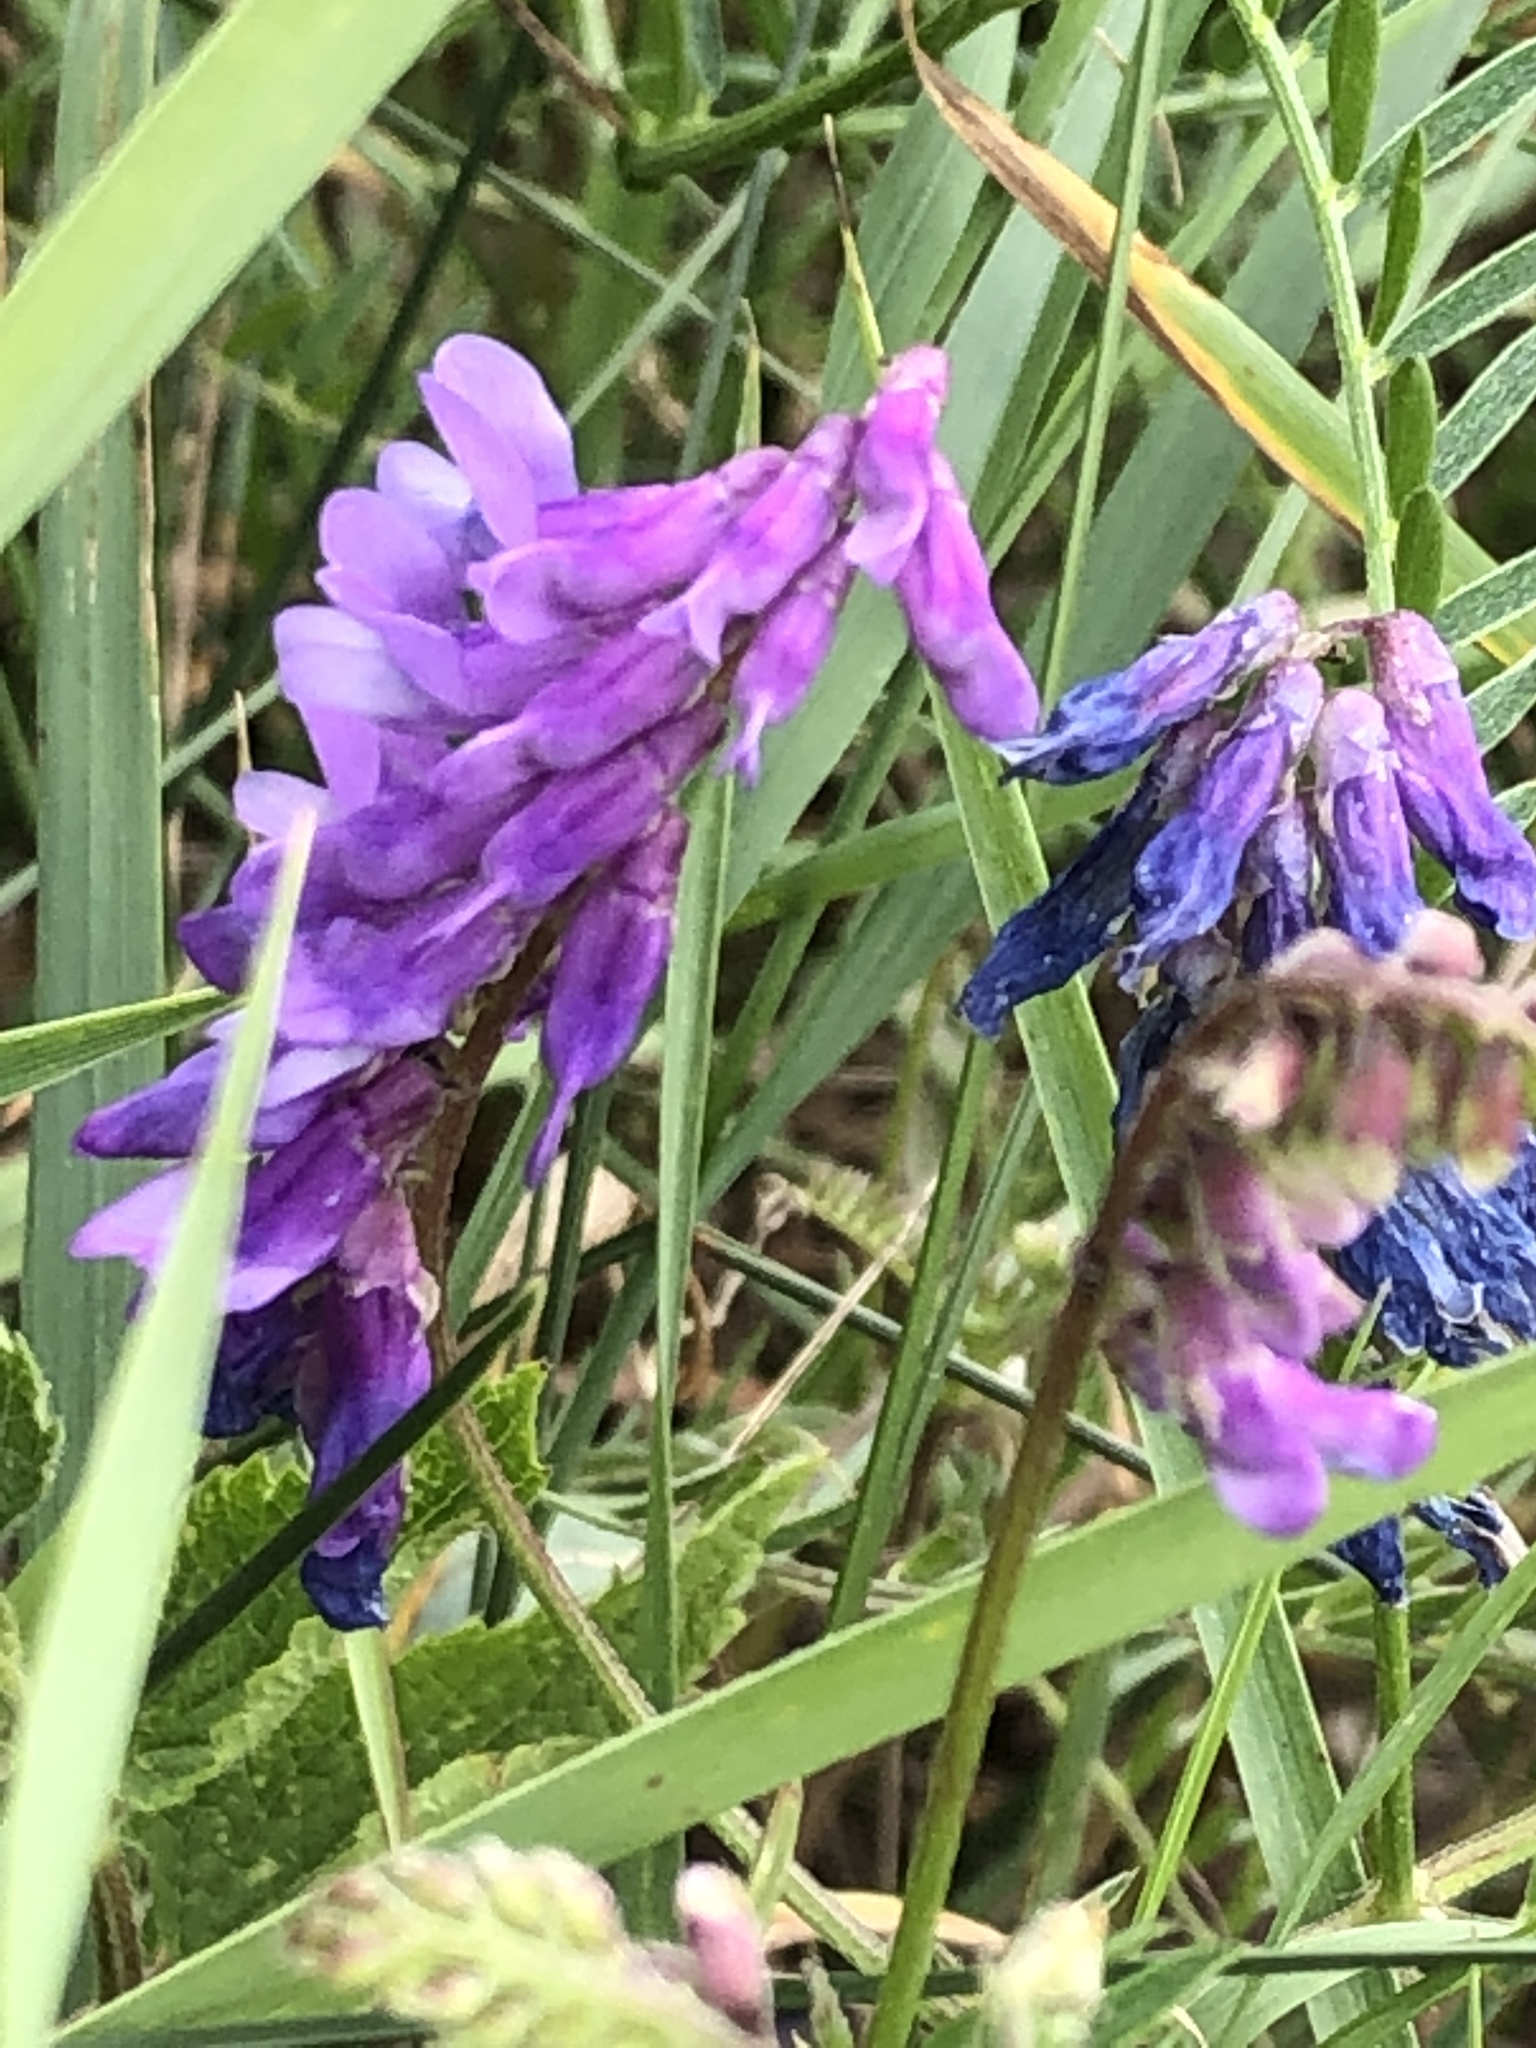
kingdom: Plantae
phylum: Tracheophyta
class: Magnoliopsida
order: Fabales
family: Fabaceae
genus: Vicia
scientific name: Vicia cracca
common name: Bird vetch
